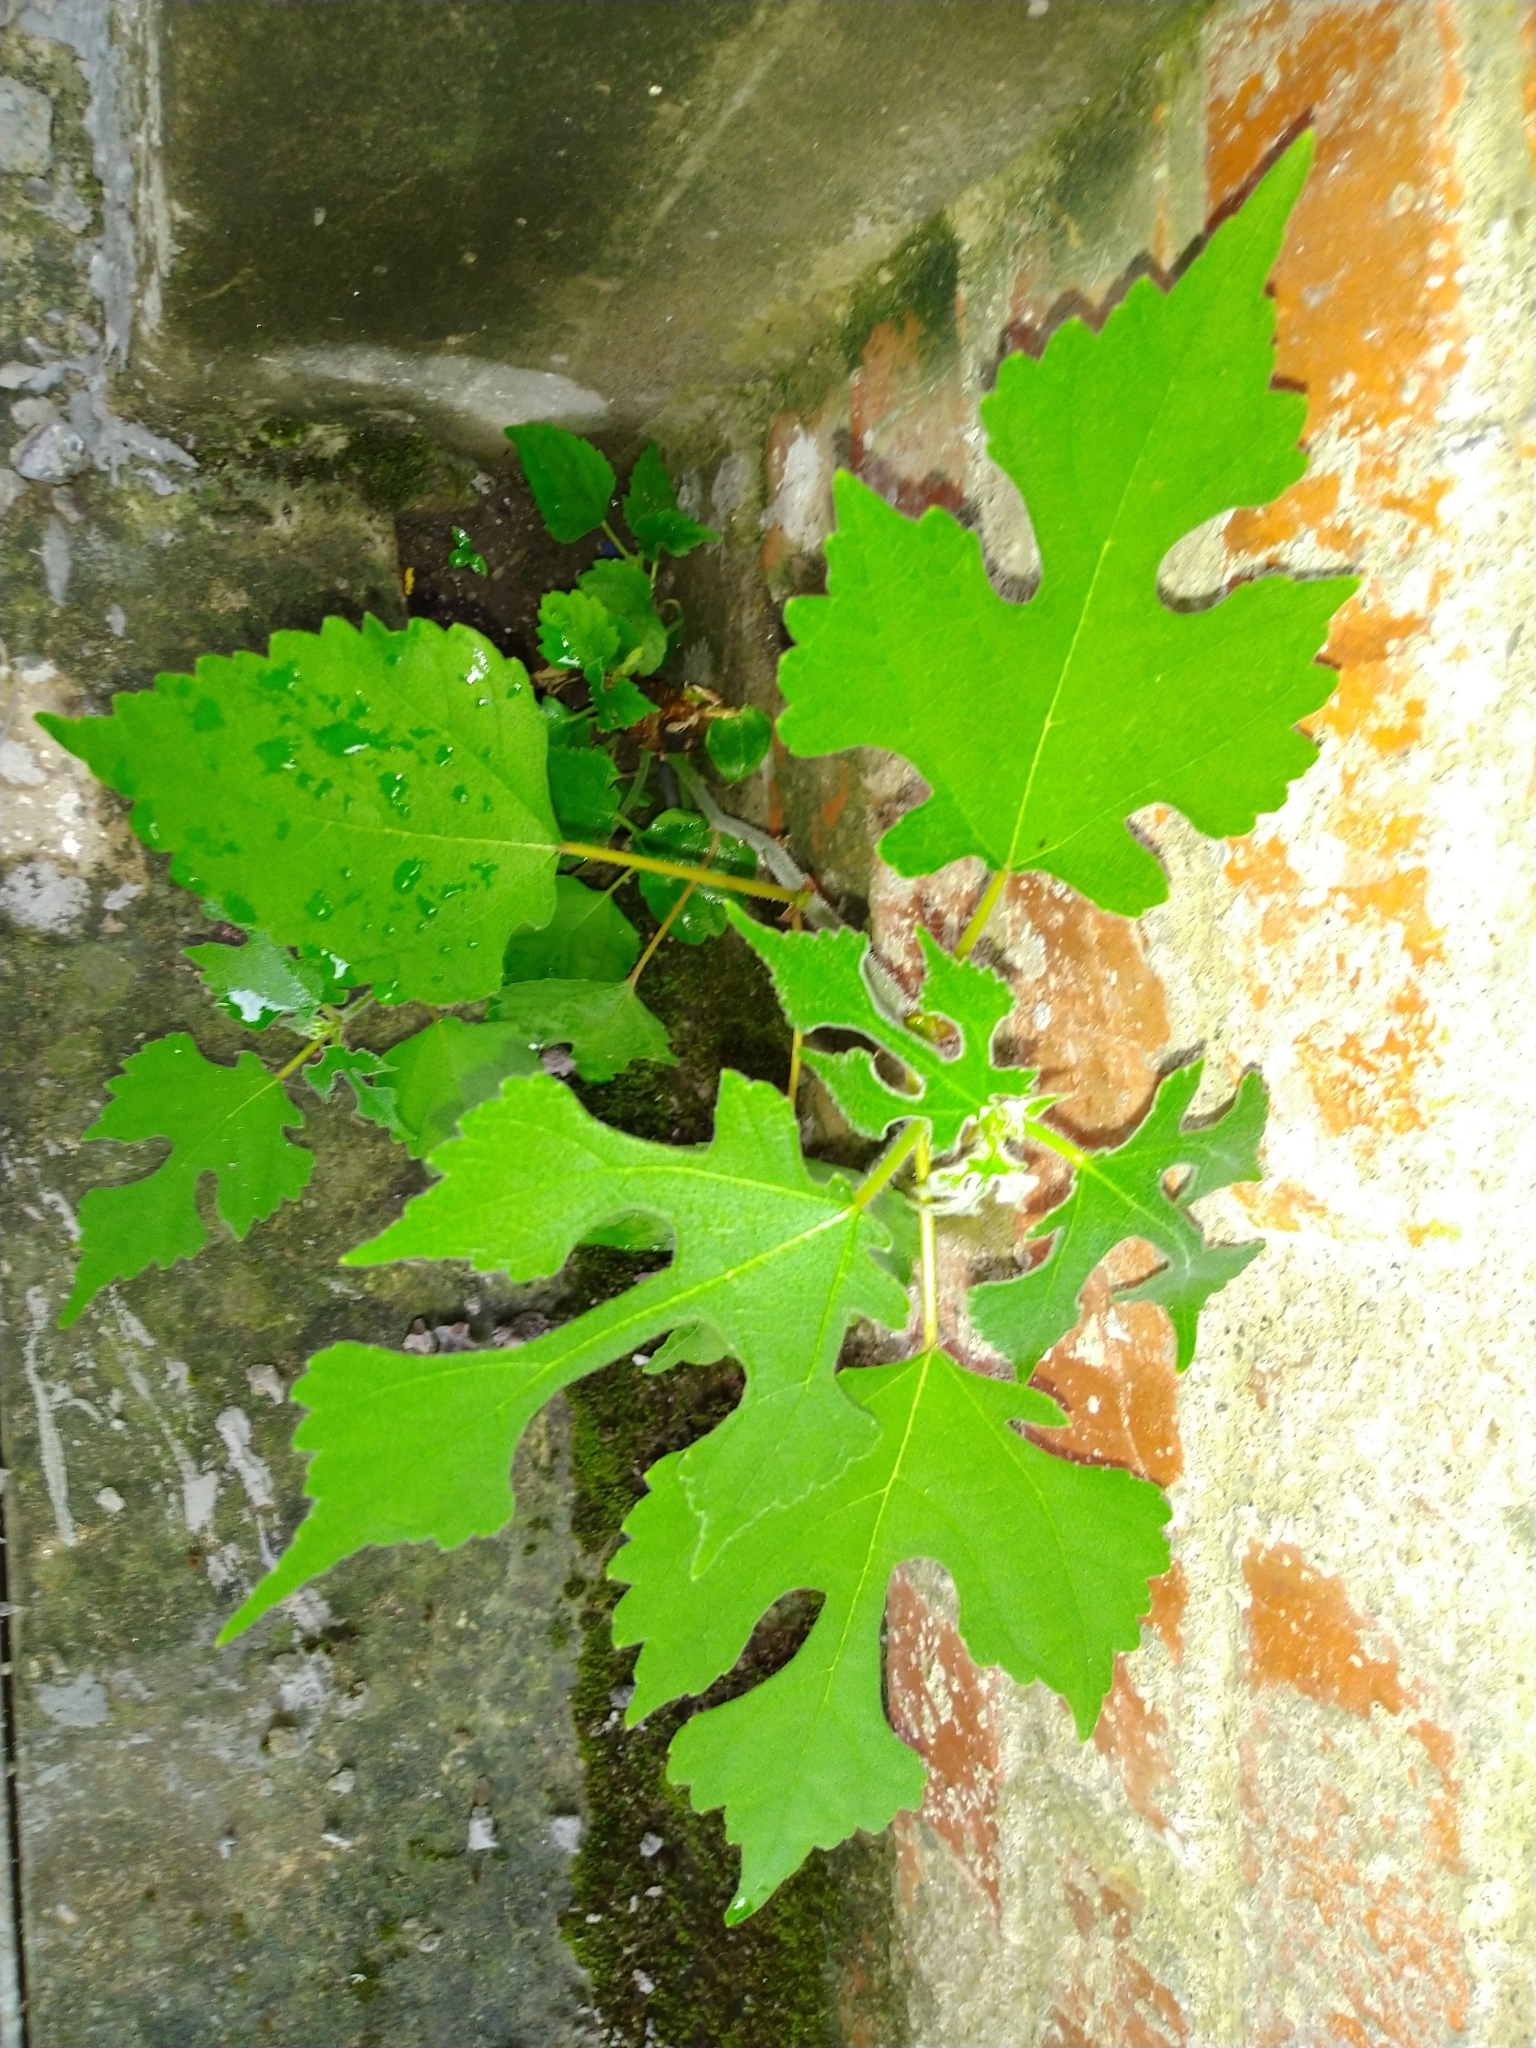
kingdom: Plantae
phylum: Tracheophyta
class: Magnoliopsida
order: Rosales
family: Moraceae
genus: Broussonetia
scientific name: Broussonetia papyrifera
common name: Paper mulberry
